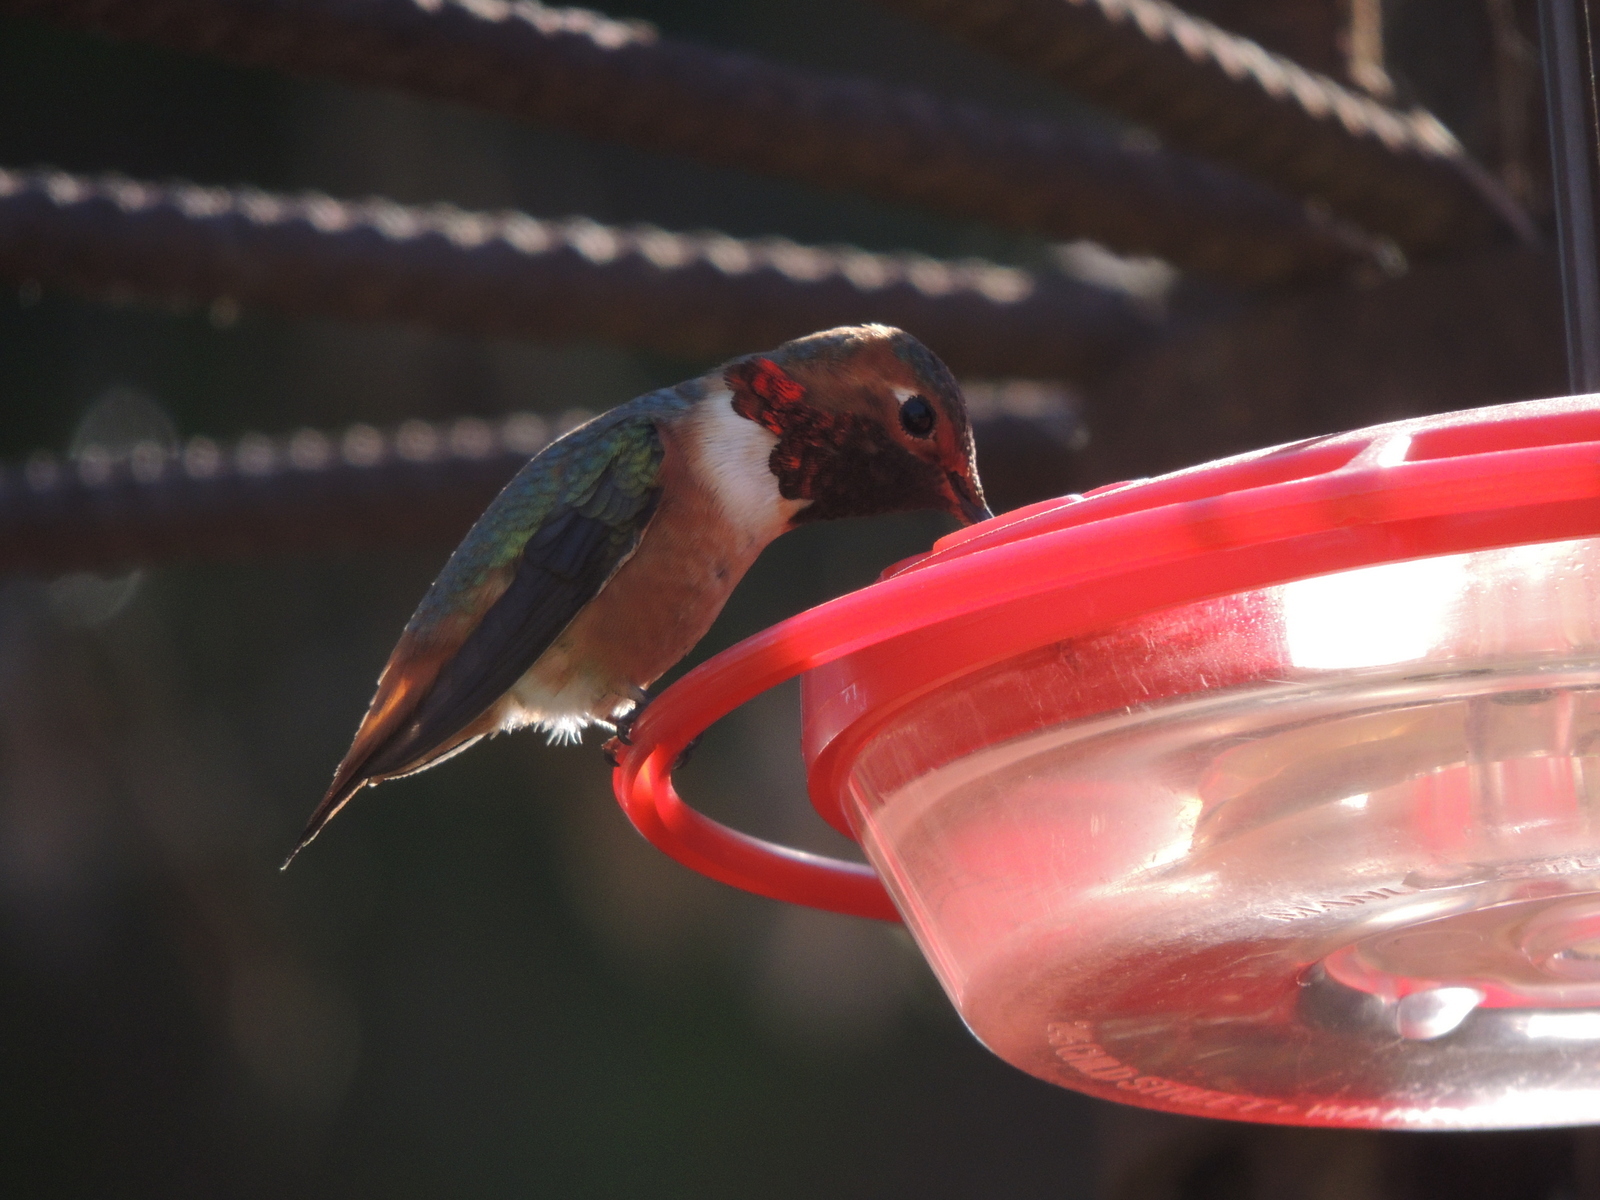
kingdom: Animalia
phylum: Chordata
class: Aves
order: Apodiformes
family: Trochilidae
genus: Selasphorus
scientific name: Selasphorus sasin
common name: Allen's hummingbird
